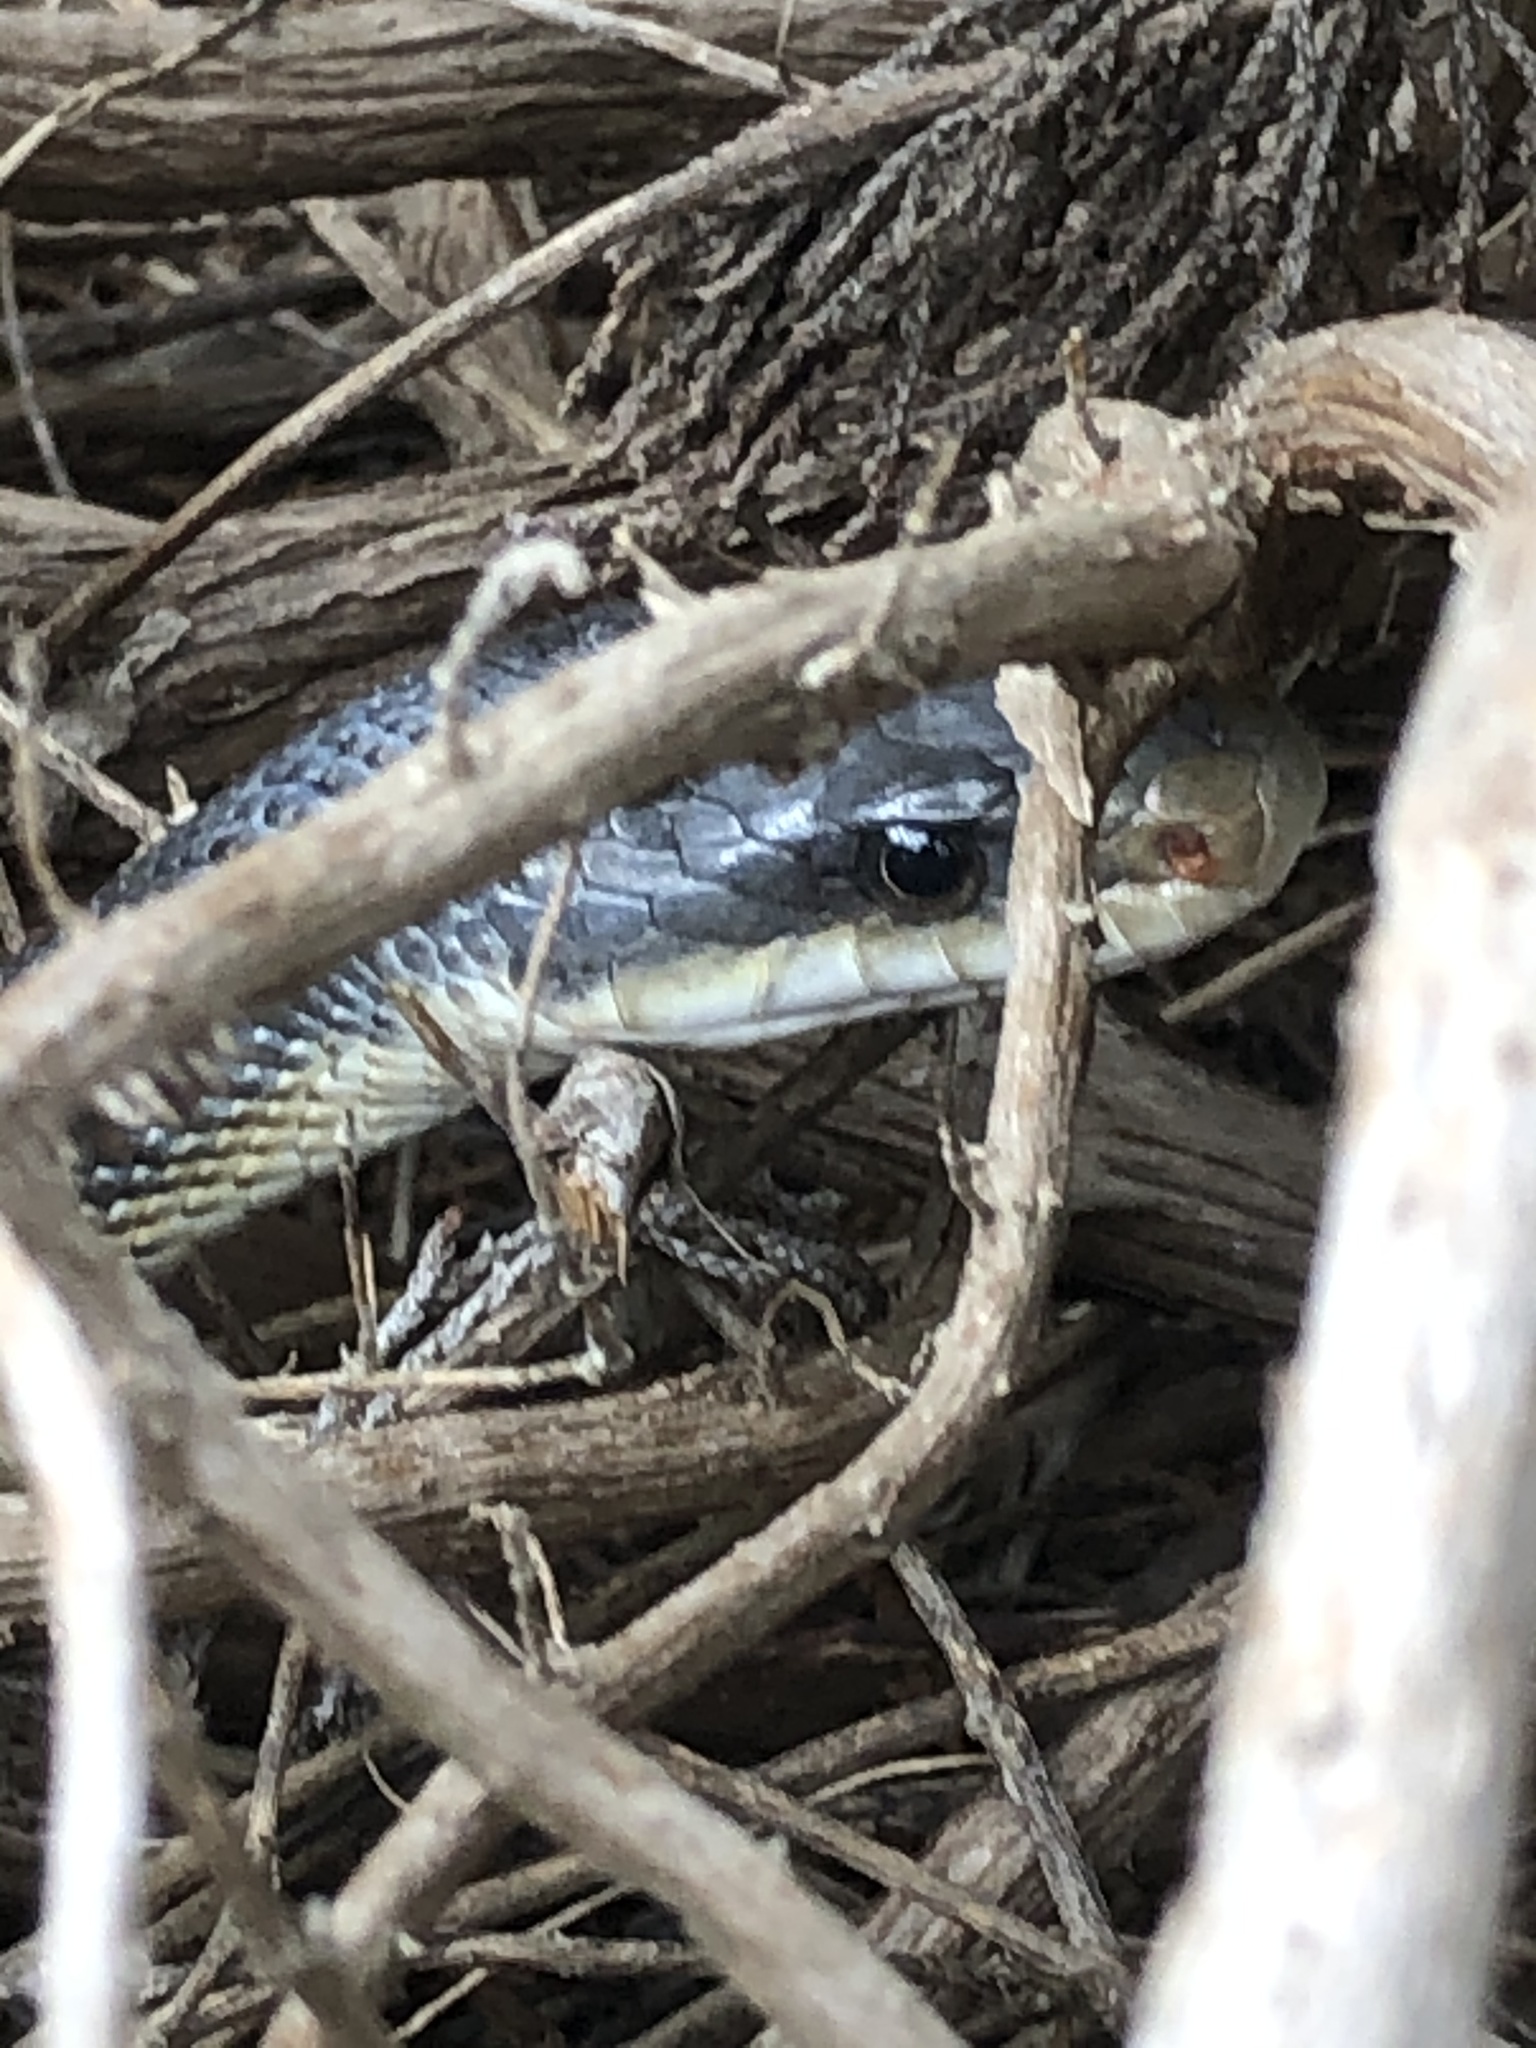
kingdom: Animalia
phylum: Chordata
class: Squamata
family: Colubridae
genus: Pantherophis
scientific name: Pantherophis obsoletus
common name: Black rat snake
